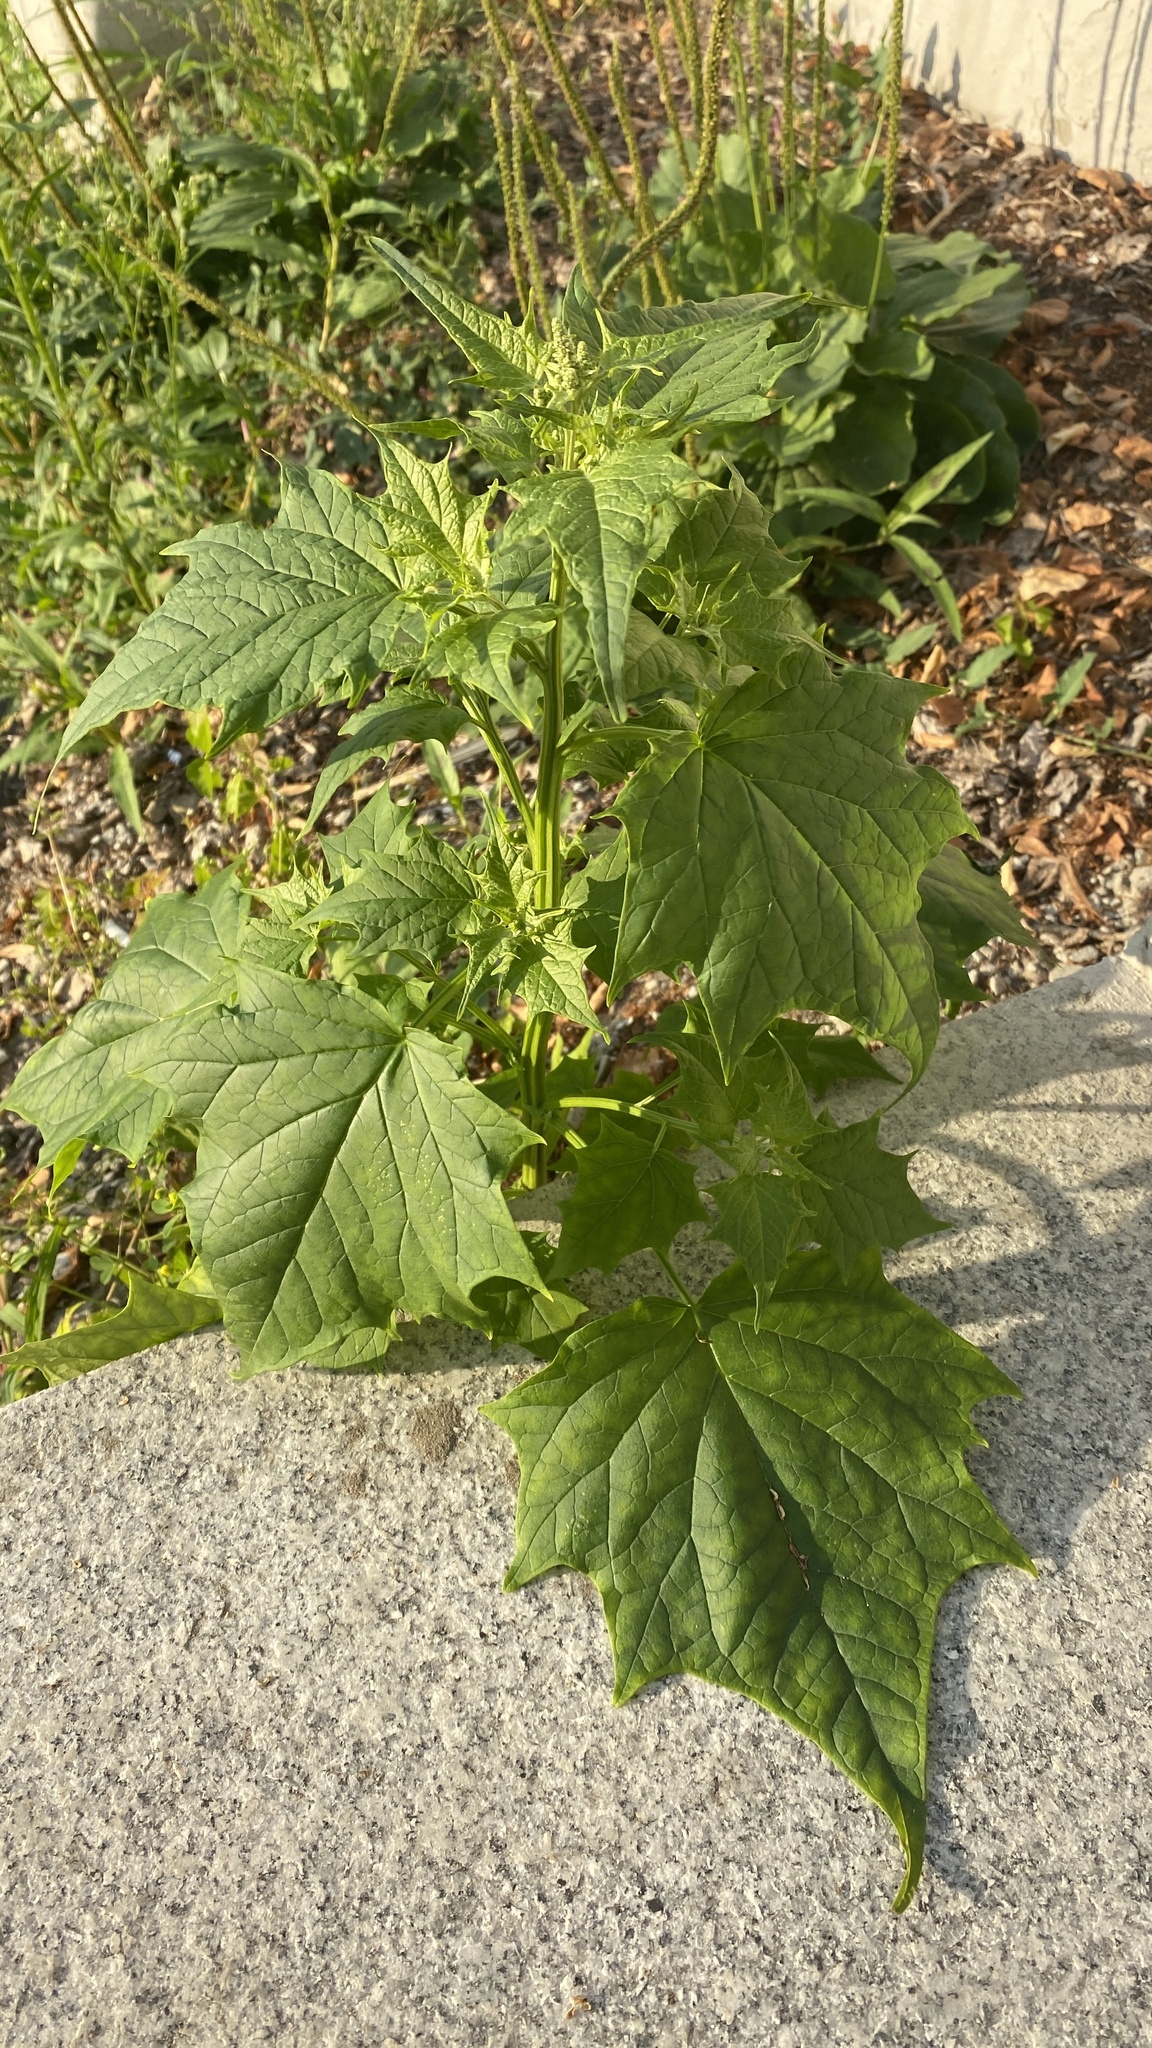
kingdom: Plantae
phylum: Tracheophyta
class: Magnoliopsida
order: Caryophyllales
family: Amaranthaceae
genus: Chenopodiastrum
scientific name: Chenopodiastrum hybridum
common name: Mapleleaf goosefoot
